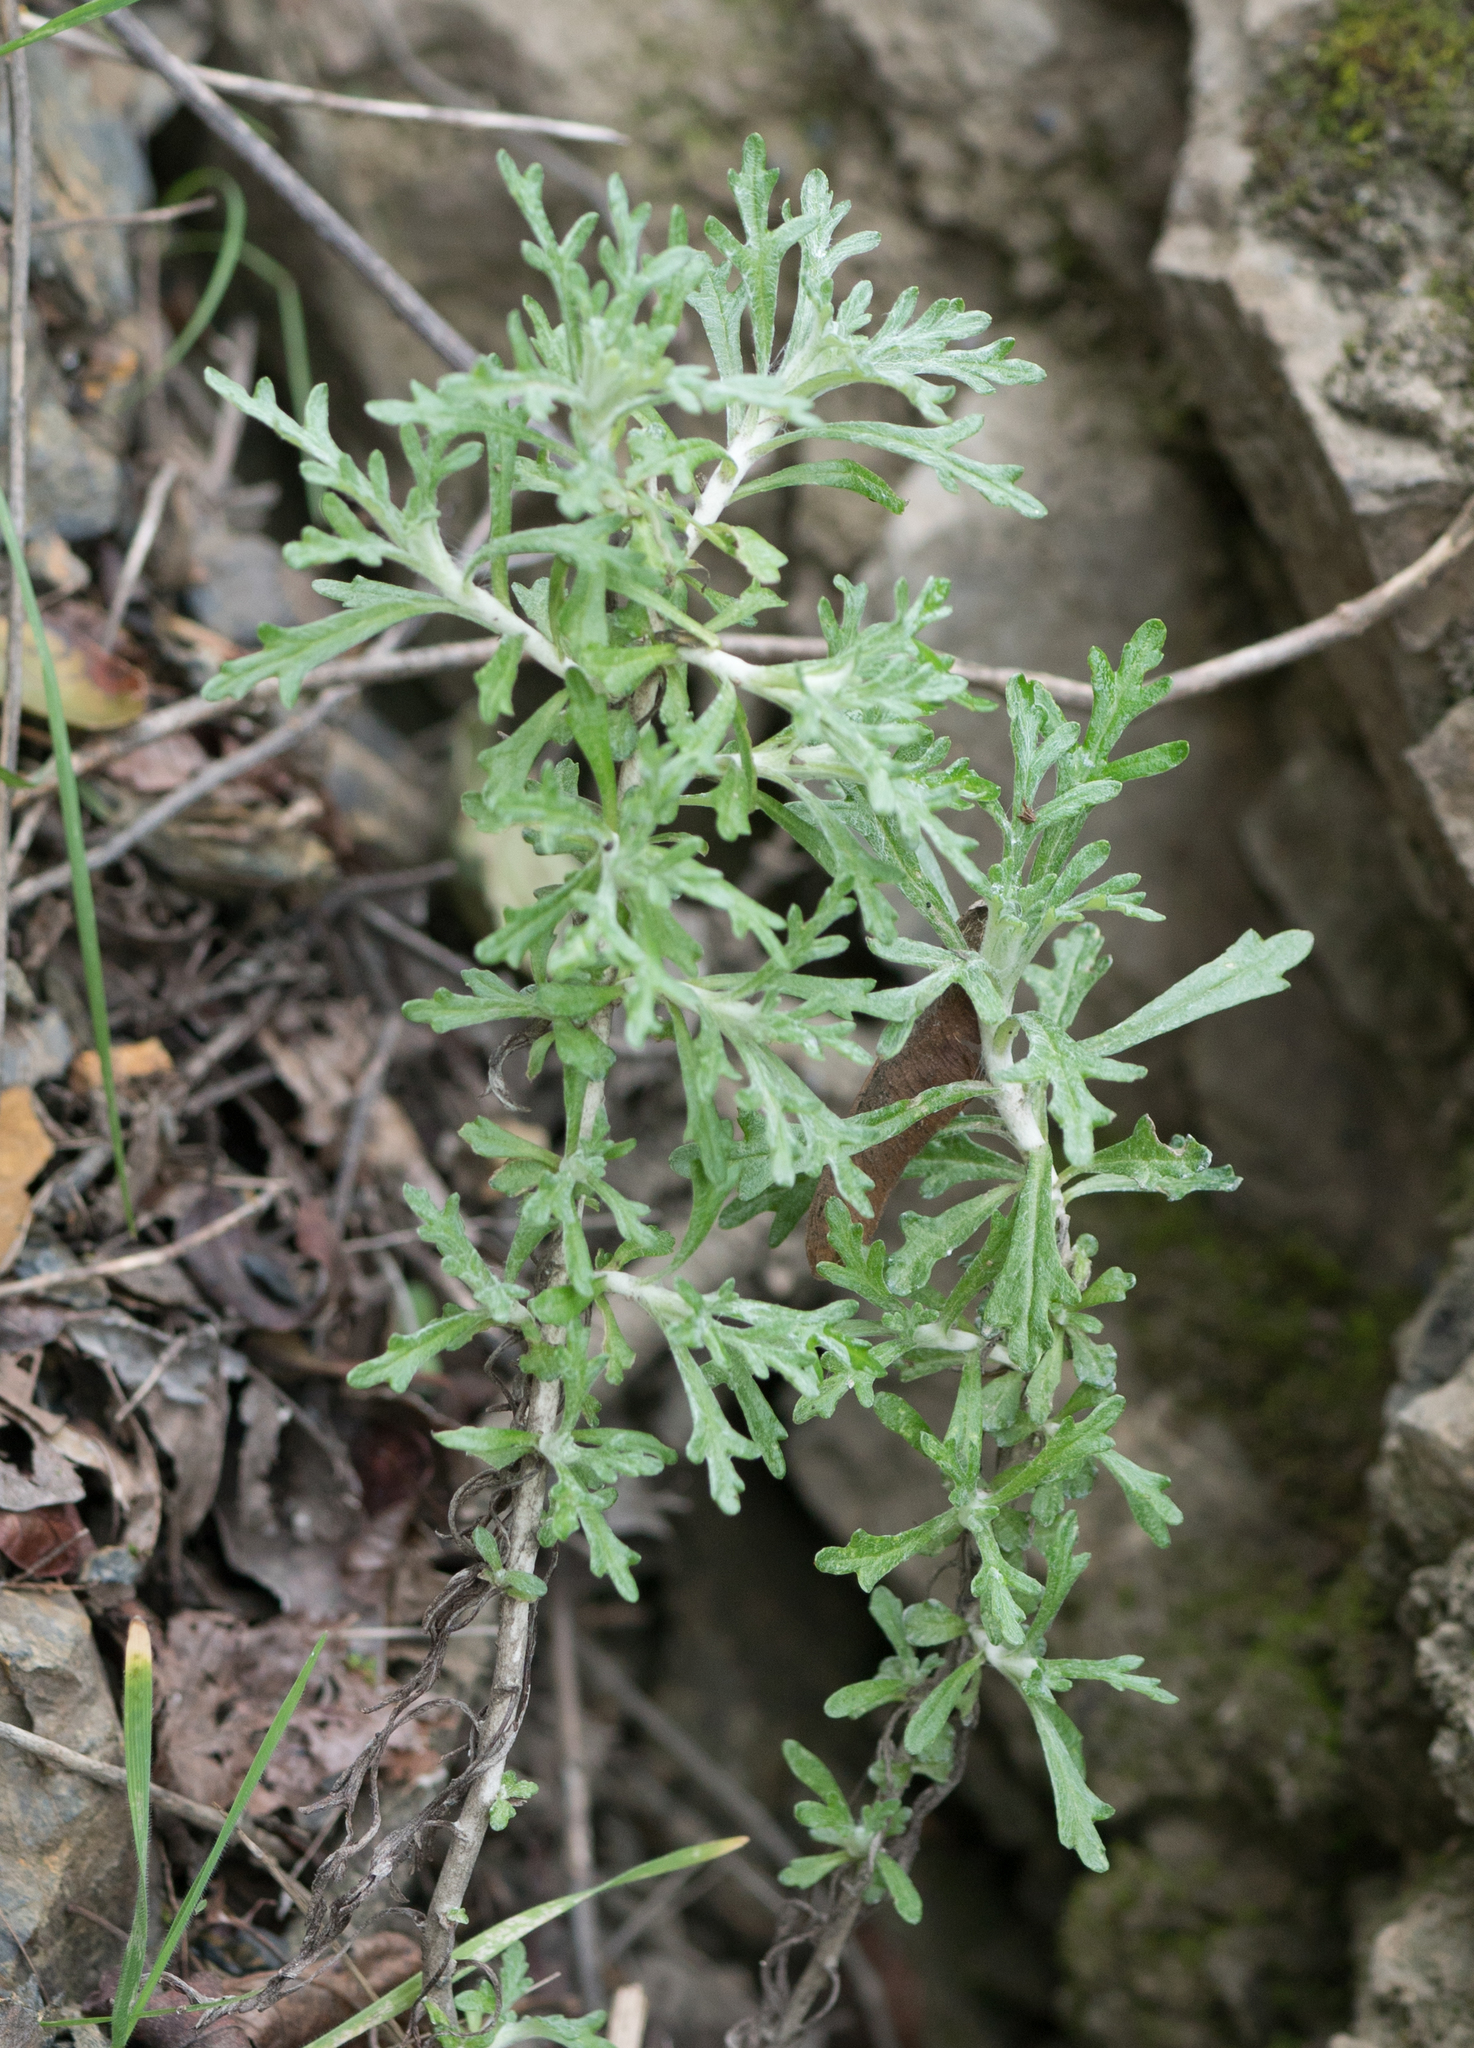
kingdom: Plantae
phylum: Tracheophyta
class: Magnoliopsida
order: Asterales
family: Asteraceae
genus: Eriophyllum
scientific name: Eriophyllum confertiflorum
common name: Golden-yarrow
